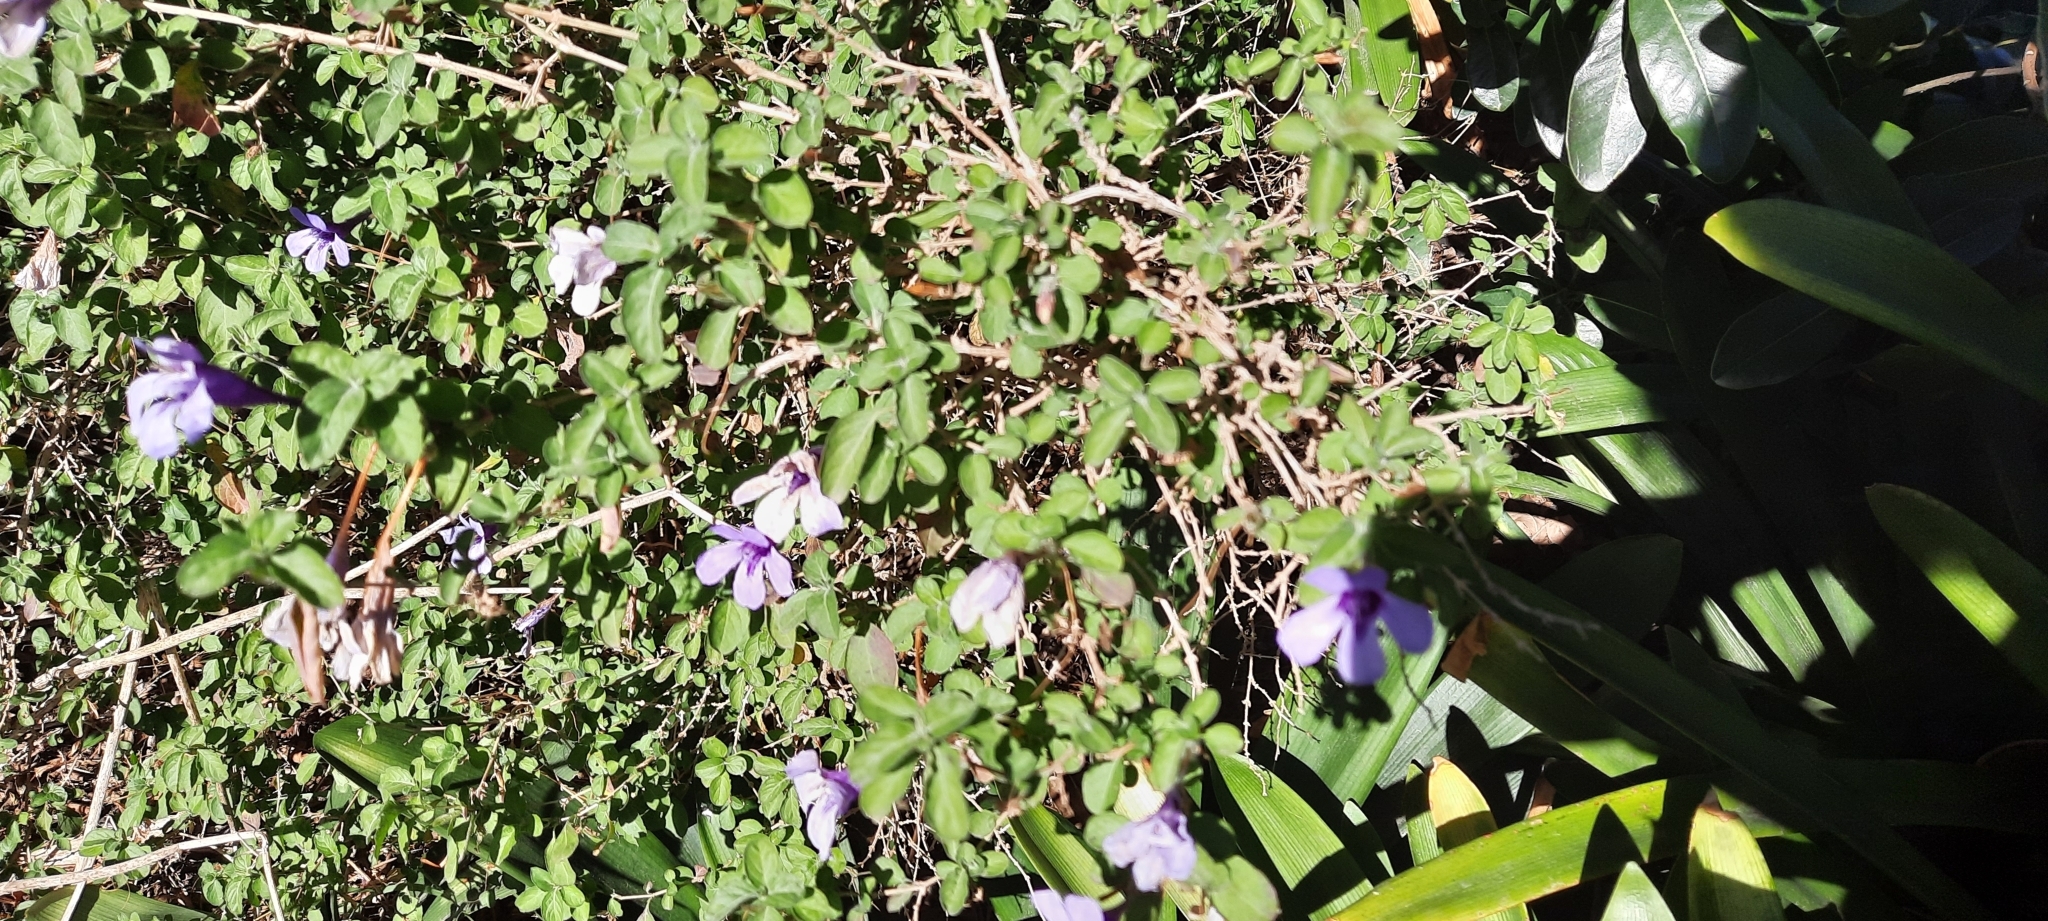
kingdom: Plantae
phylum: Tracheophyta
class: Magnoliopsida
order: Lamiales
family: Acanthaceae
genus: Dyschoriste
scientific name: Dyschoriste thunbergiiflora
